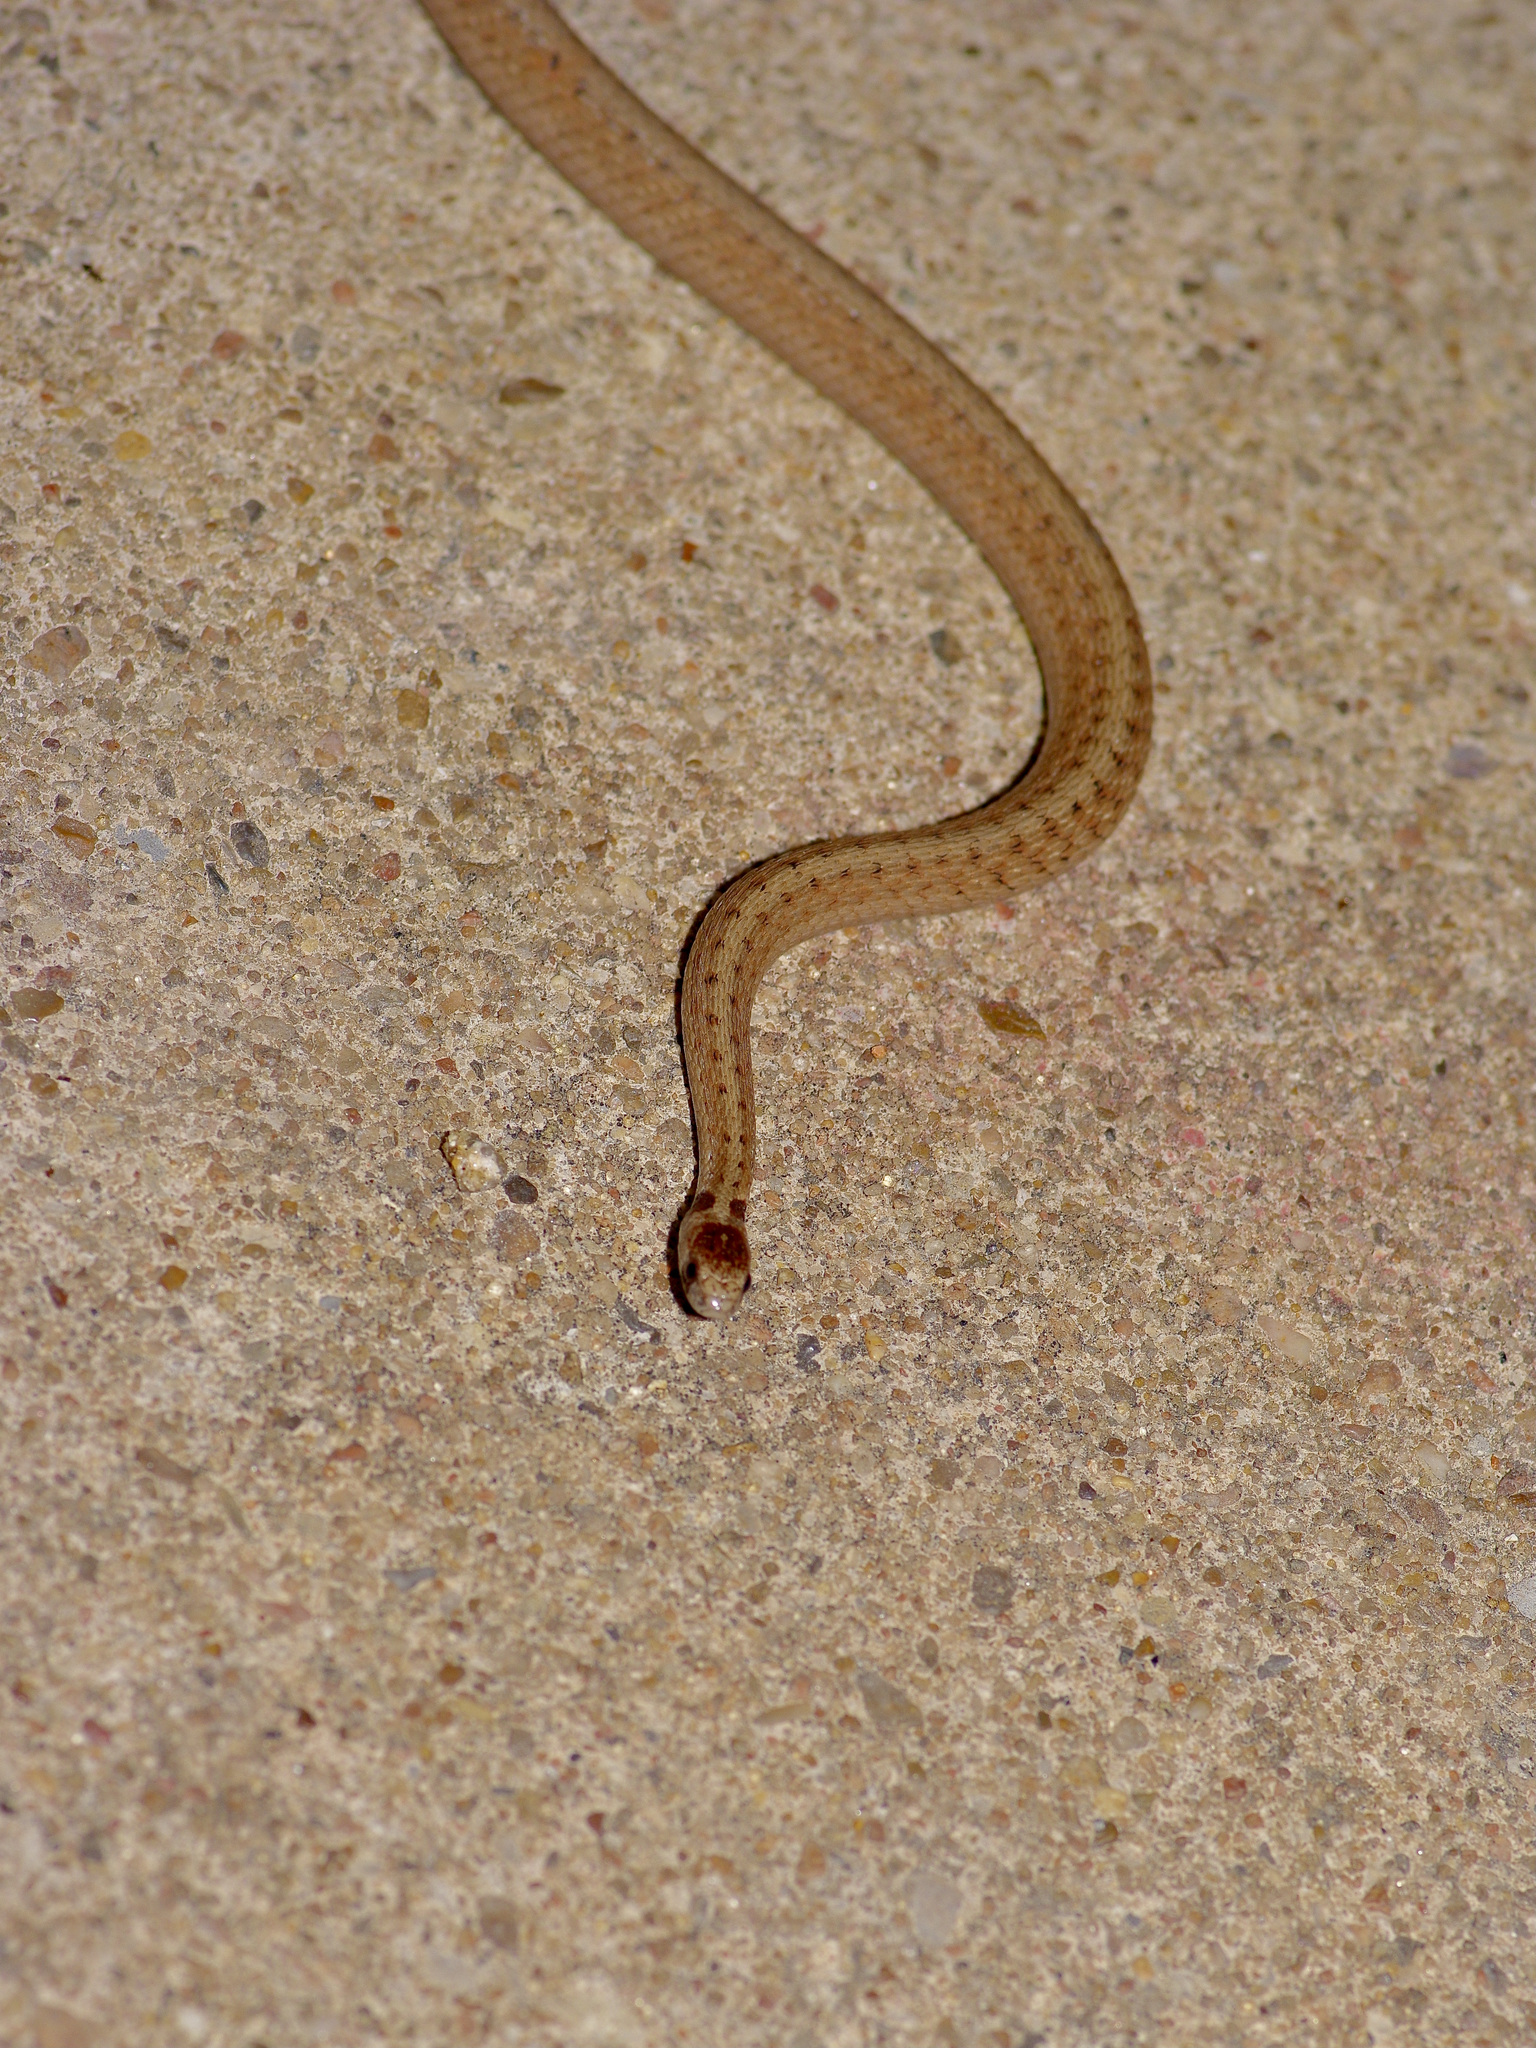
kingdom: Animalia
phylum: Chordata
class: Squamata
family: Colubridae
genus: Storeria
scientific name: Storeria dekayi
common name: (dekay’s) brown snake
